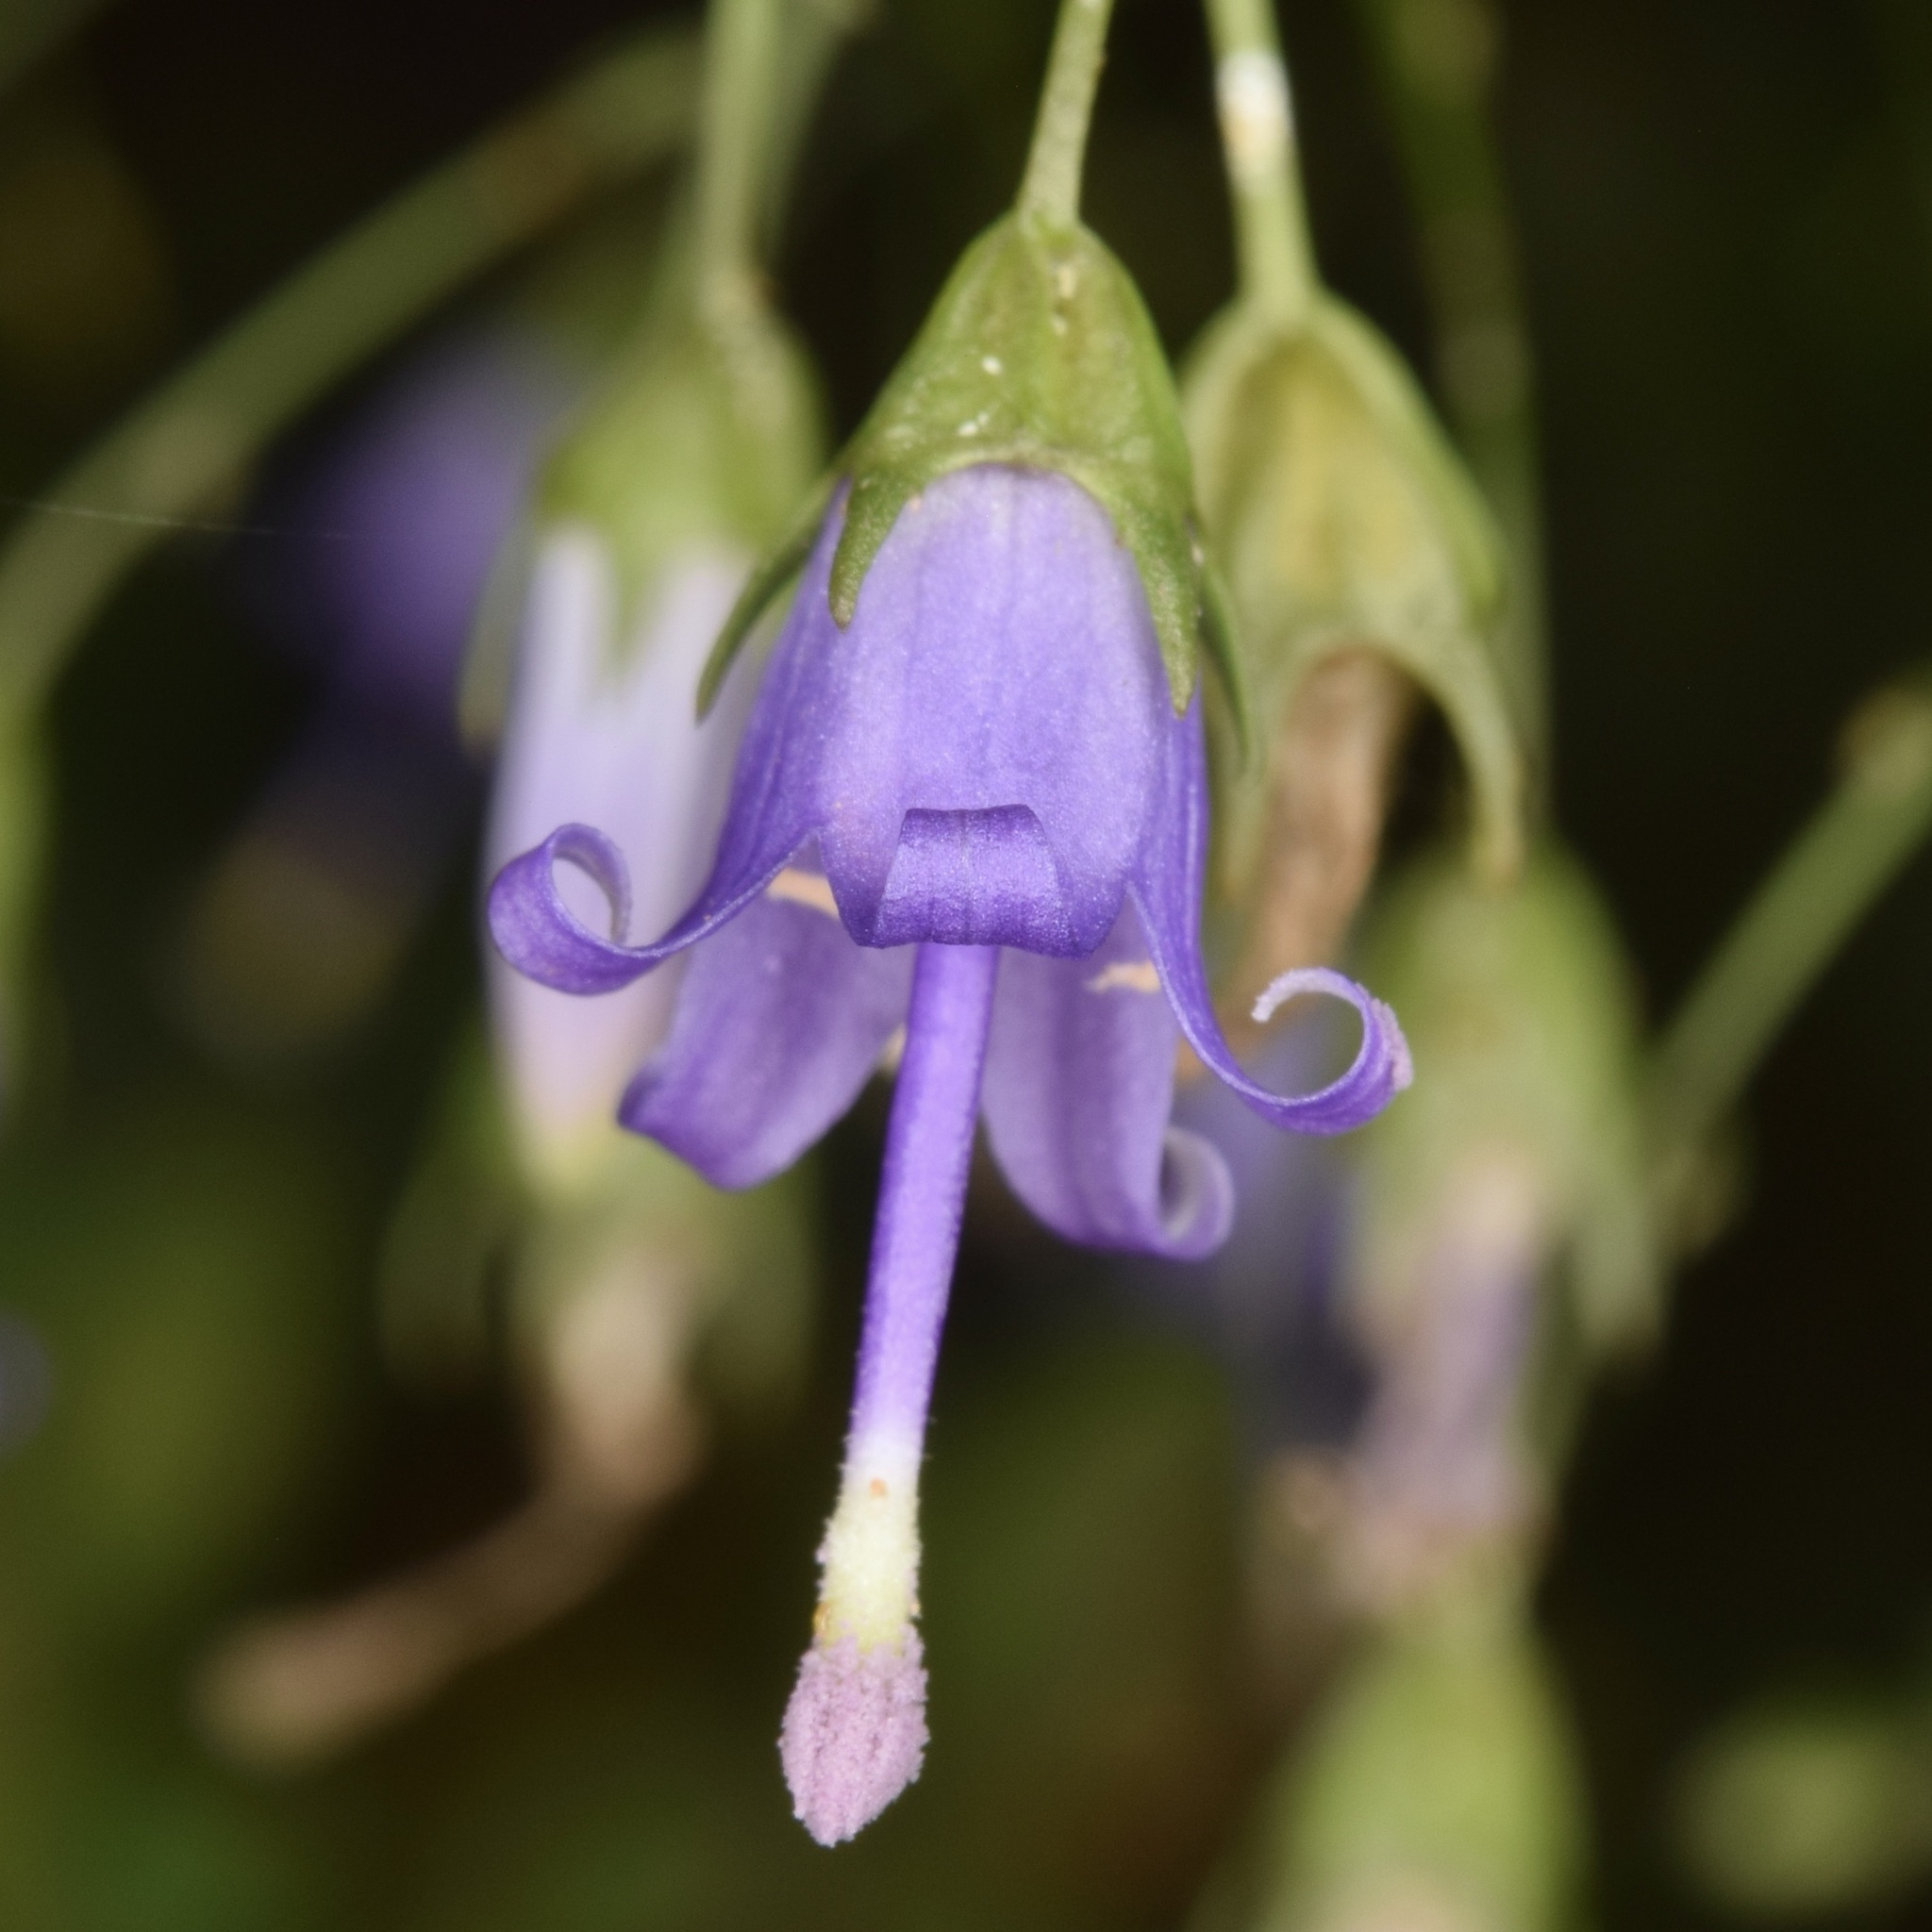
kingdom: Plantae
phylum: Tracheophyta
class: Magnoliopsida
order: Asterales
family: Campanulaceae
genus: Campanula
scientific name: Campanula divaricata
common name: Appalachian bellflower
